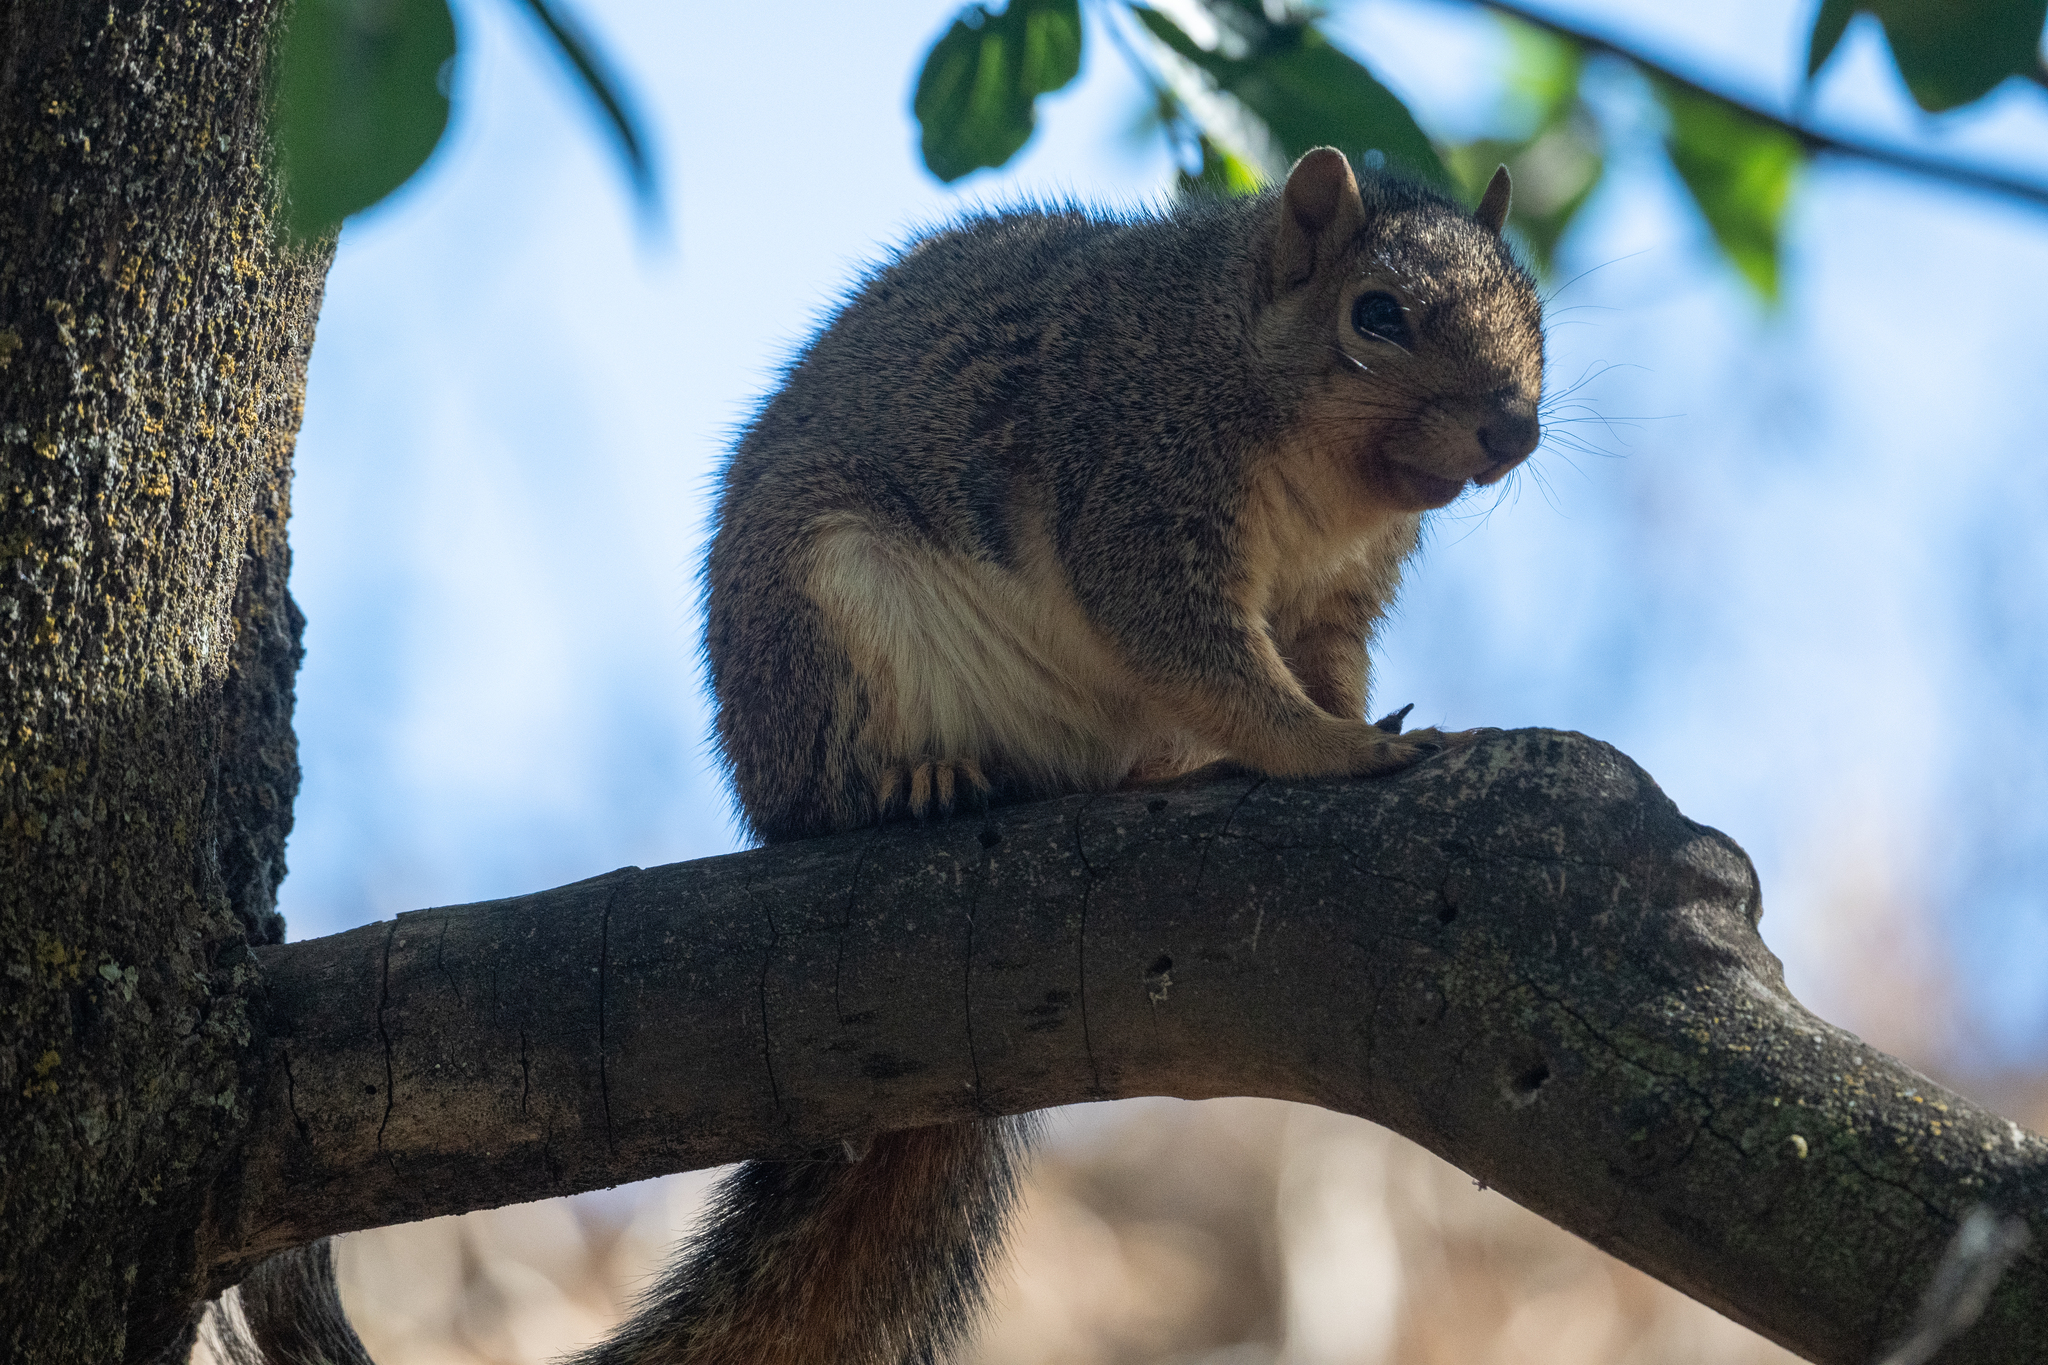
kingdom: Animalia
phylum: Chordata
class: Mammalia
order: Rodentia
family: Sciuridae
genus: Sciurus
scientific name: Sciurus niger
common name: Fox squirrel
